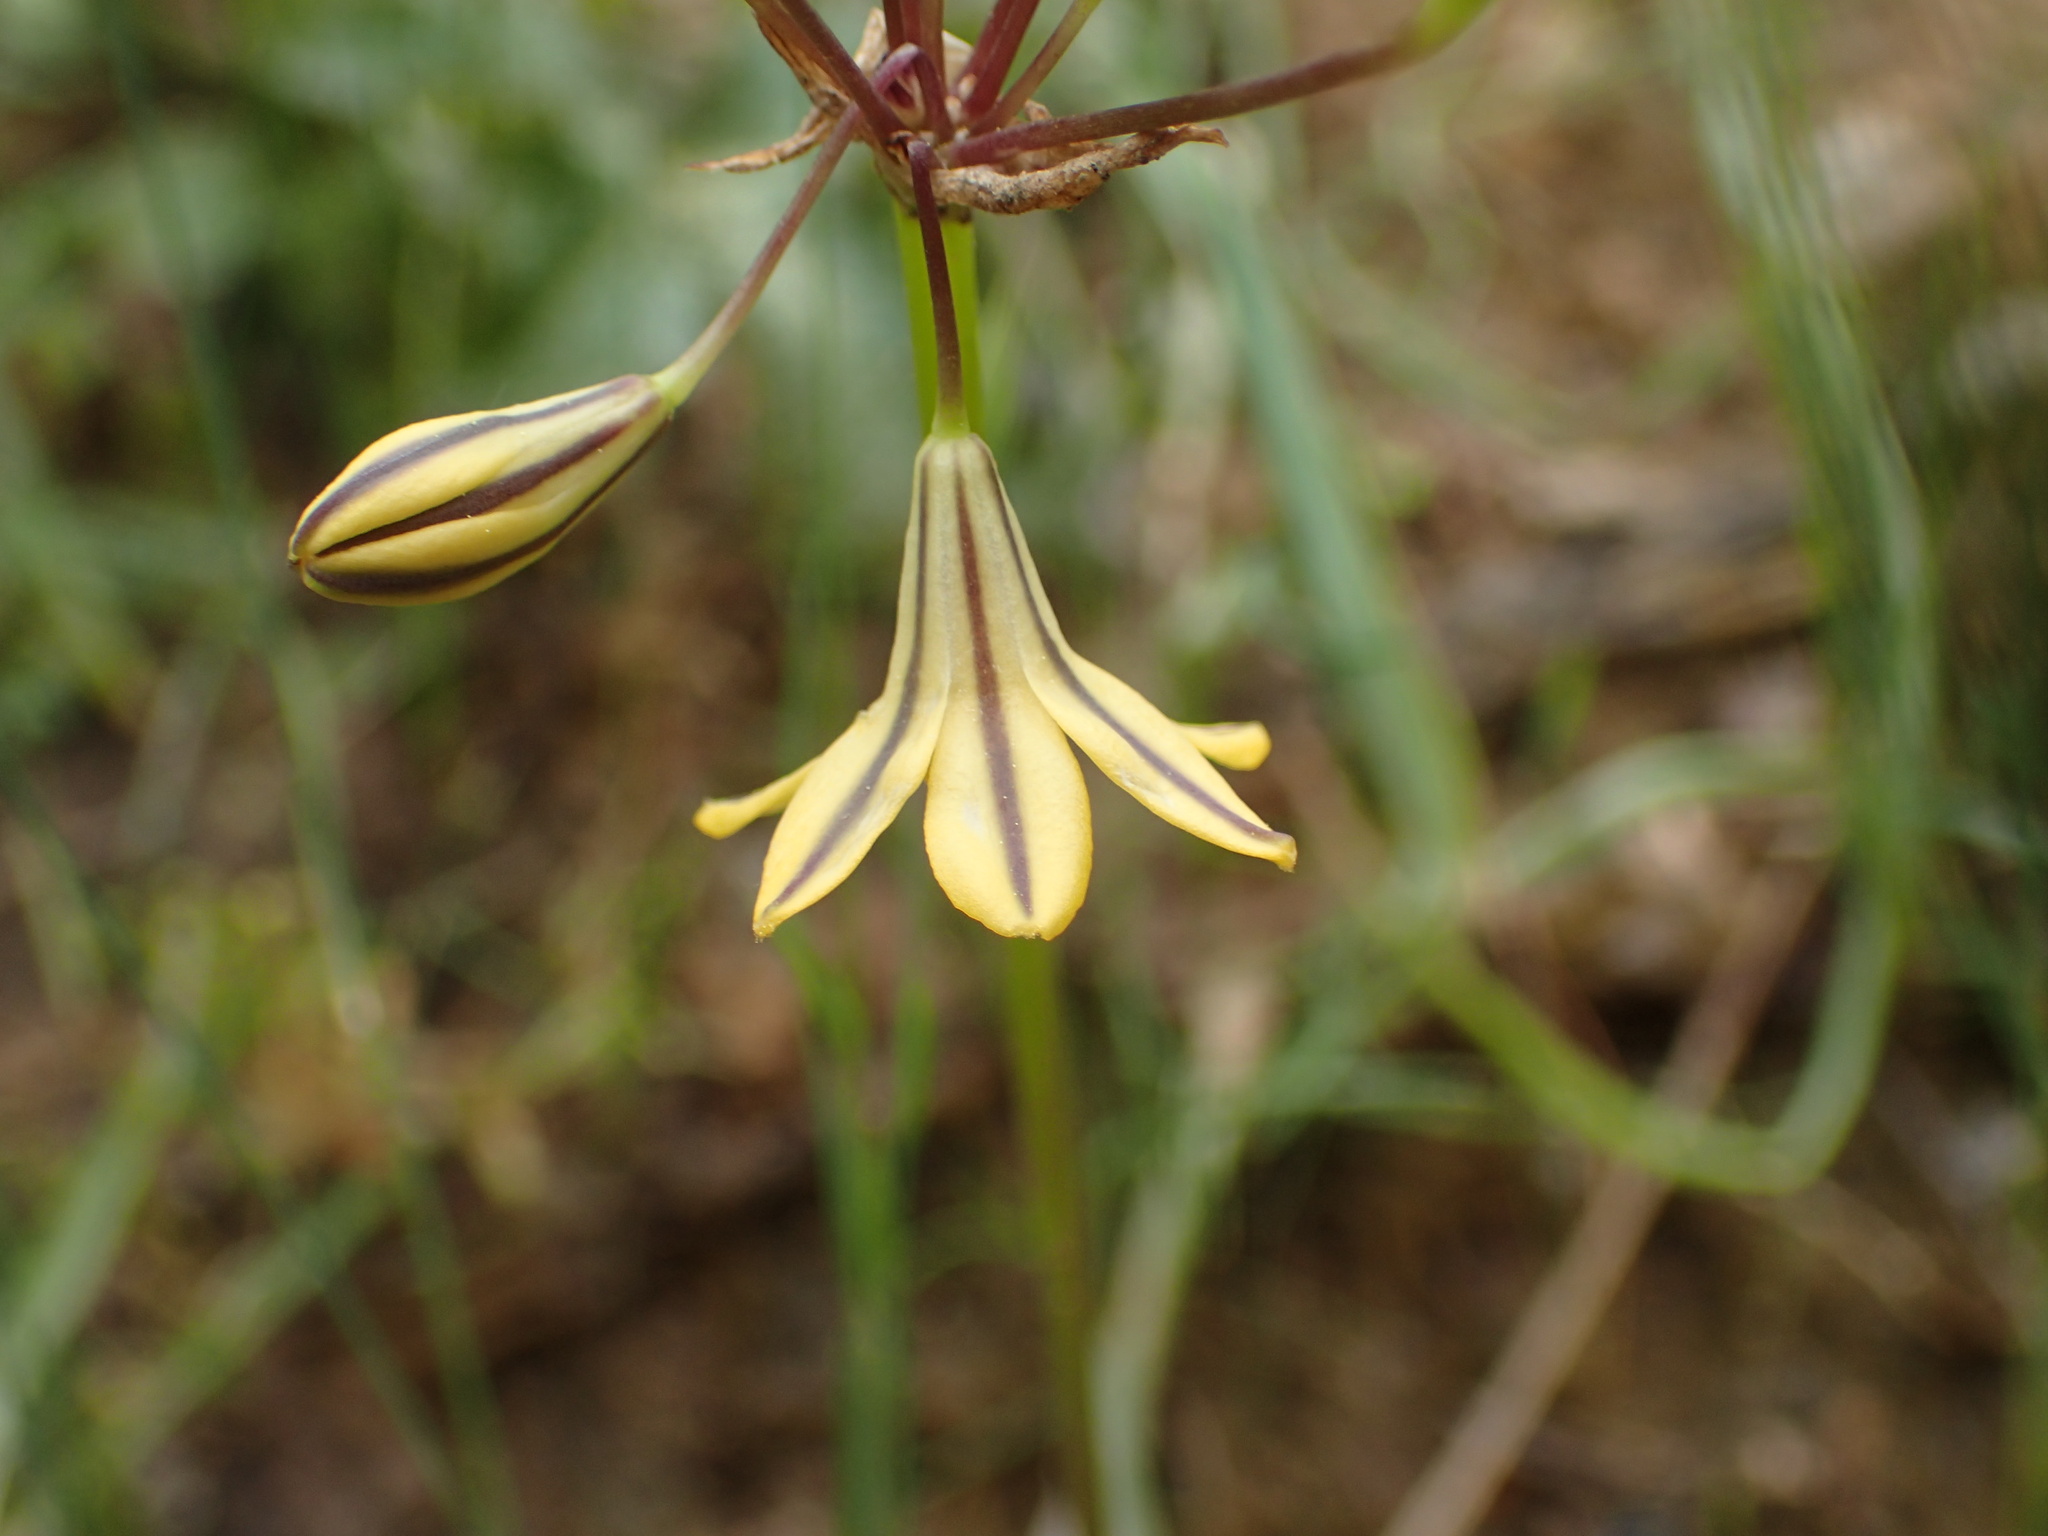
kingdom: Plantae
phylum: Tracheophyta
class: Liliopsida
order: Asparagales
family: Asparagaceae
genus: Triteleia
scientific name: Triteleia lugens
